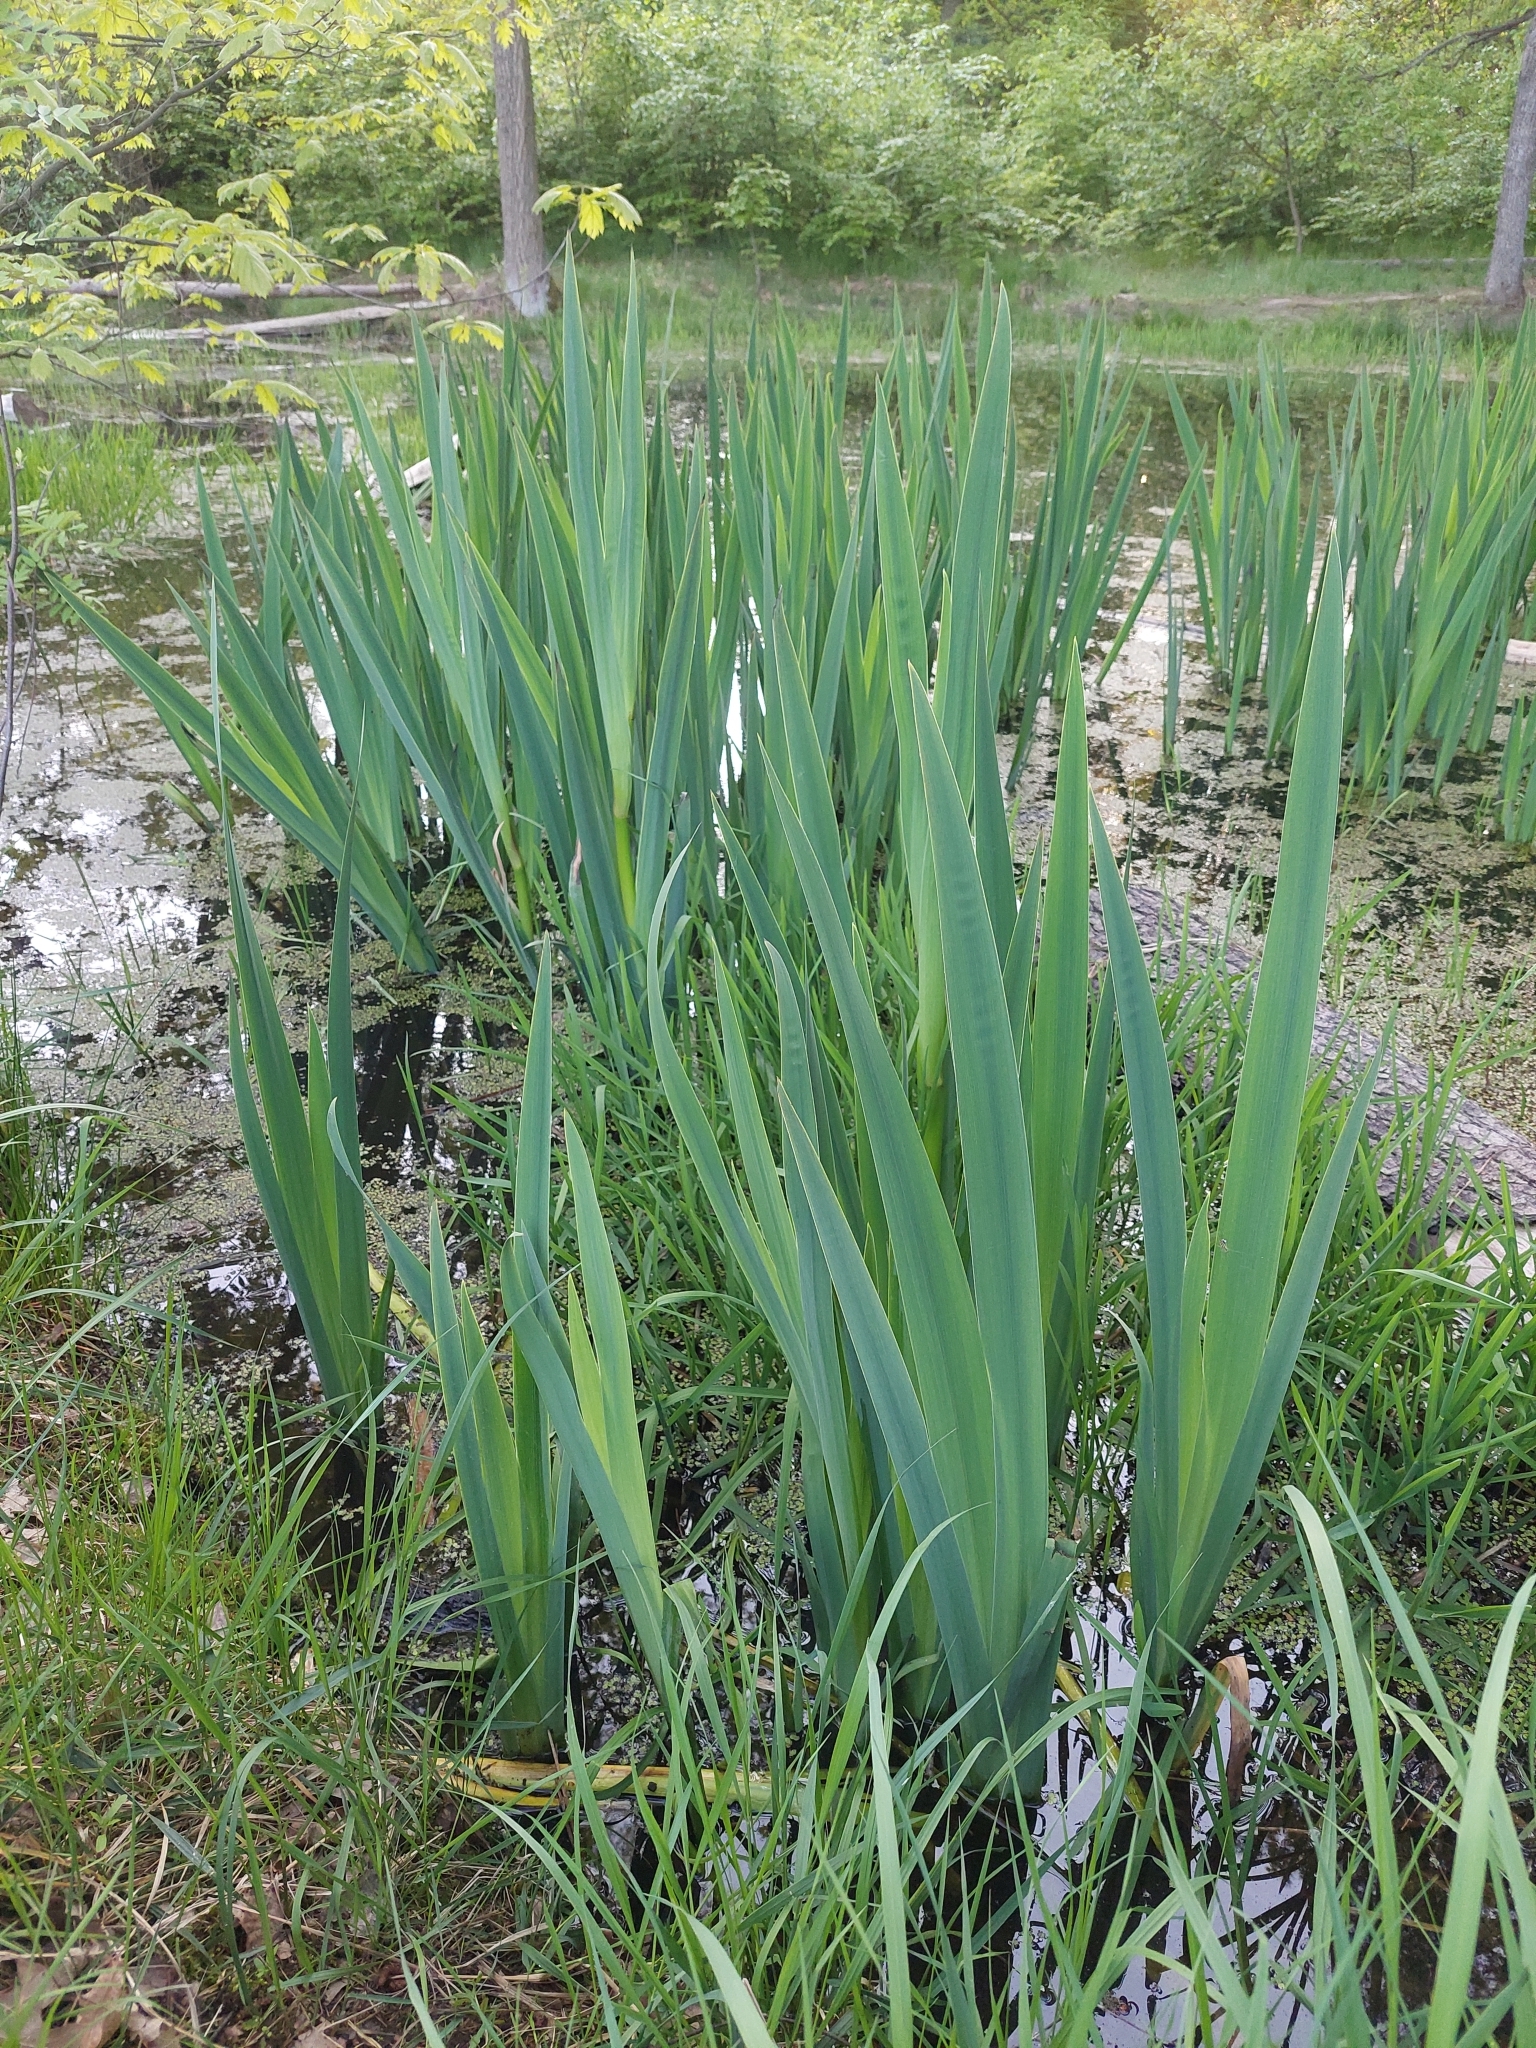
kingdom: Plantae
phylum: Tracheophyta
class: Liliopsida
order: Asparagales
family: Iridaceae
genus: Iris
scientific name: Iris pseudacorus
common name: Yellow flag
